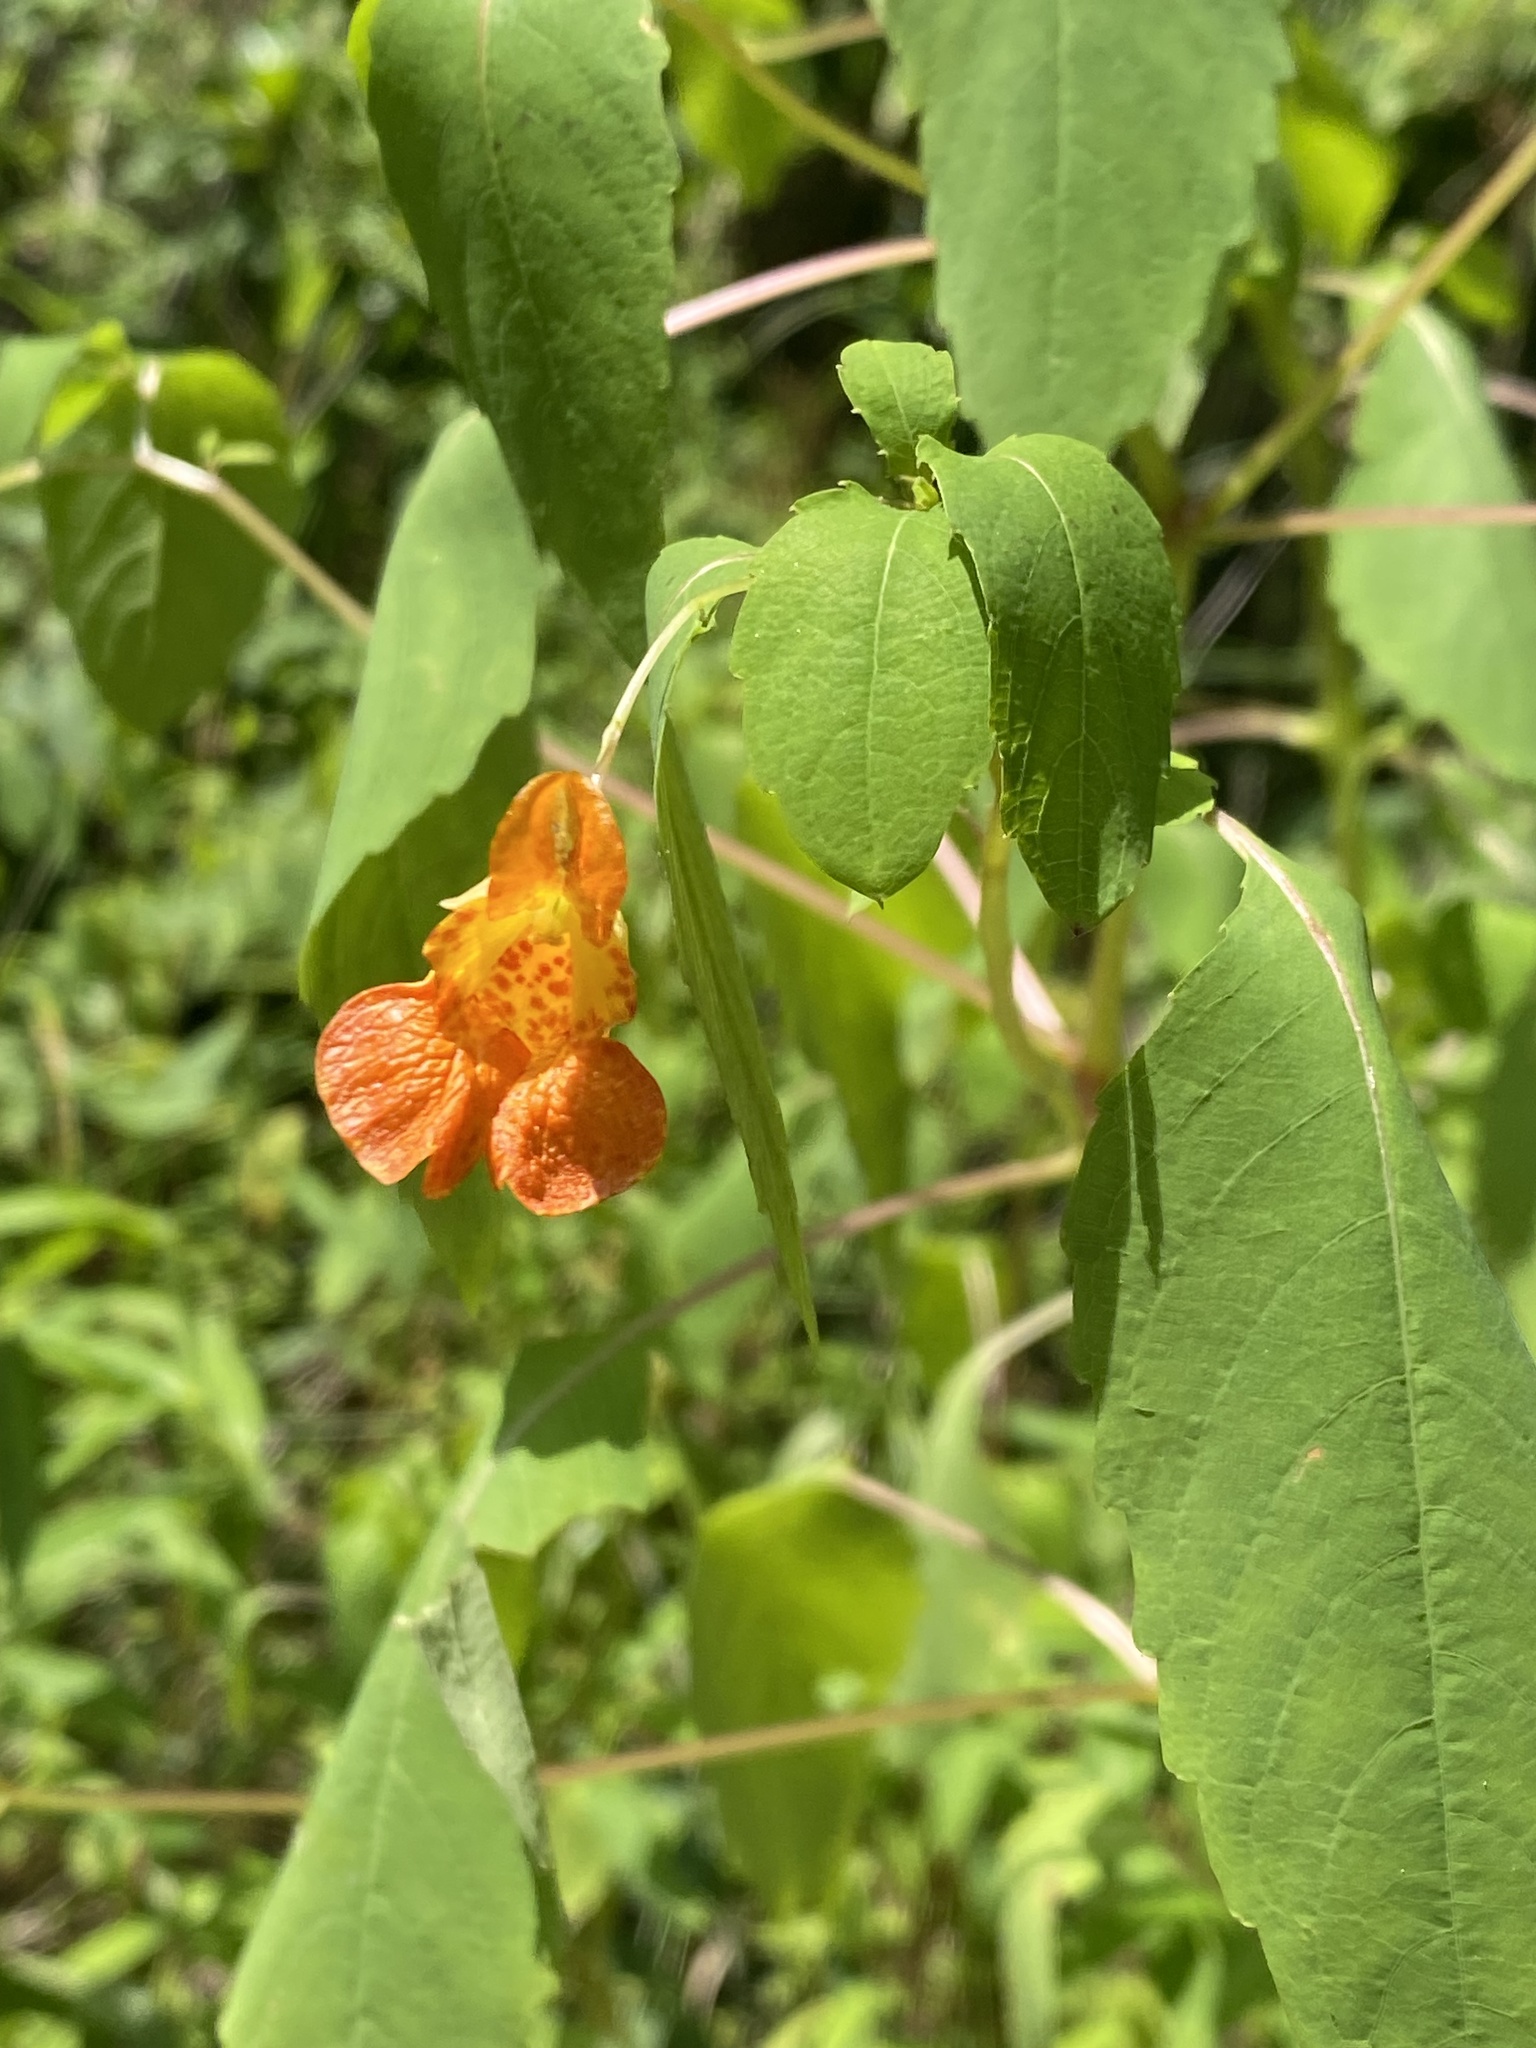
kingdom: Plantae
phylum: Tracheophyta
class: Magnoliopsida
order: Ericales
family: Balsaminaceae
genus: Impatiens
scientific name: Impatiens capensis
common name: Orange balsam
